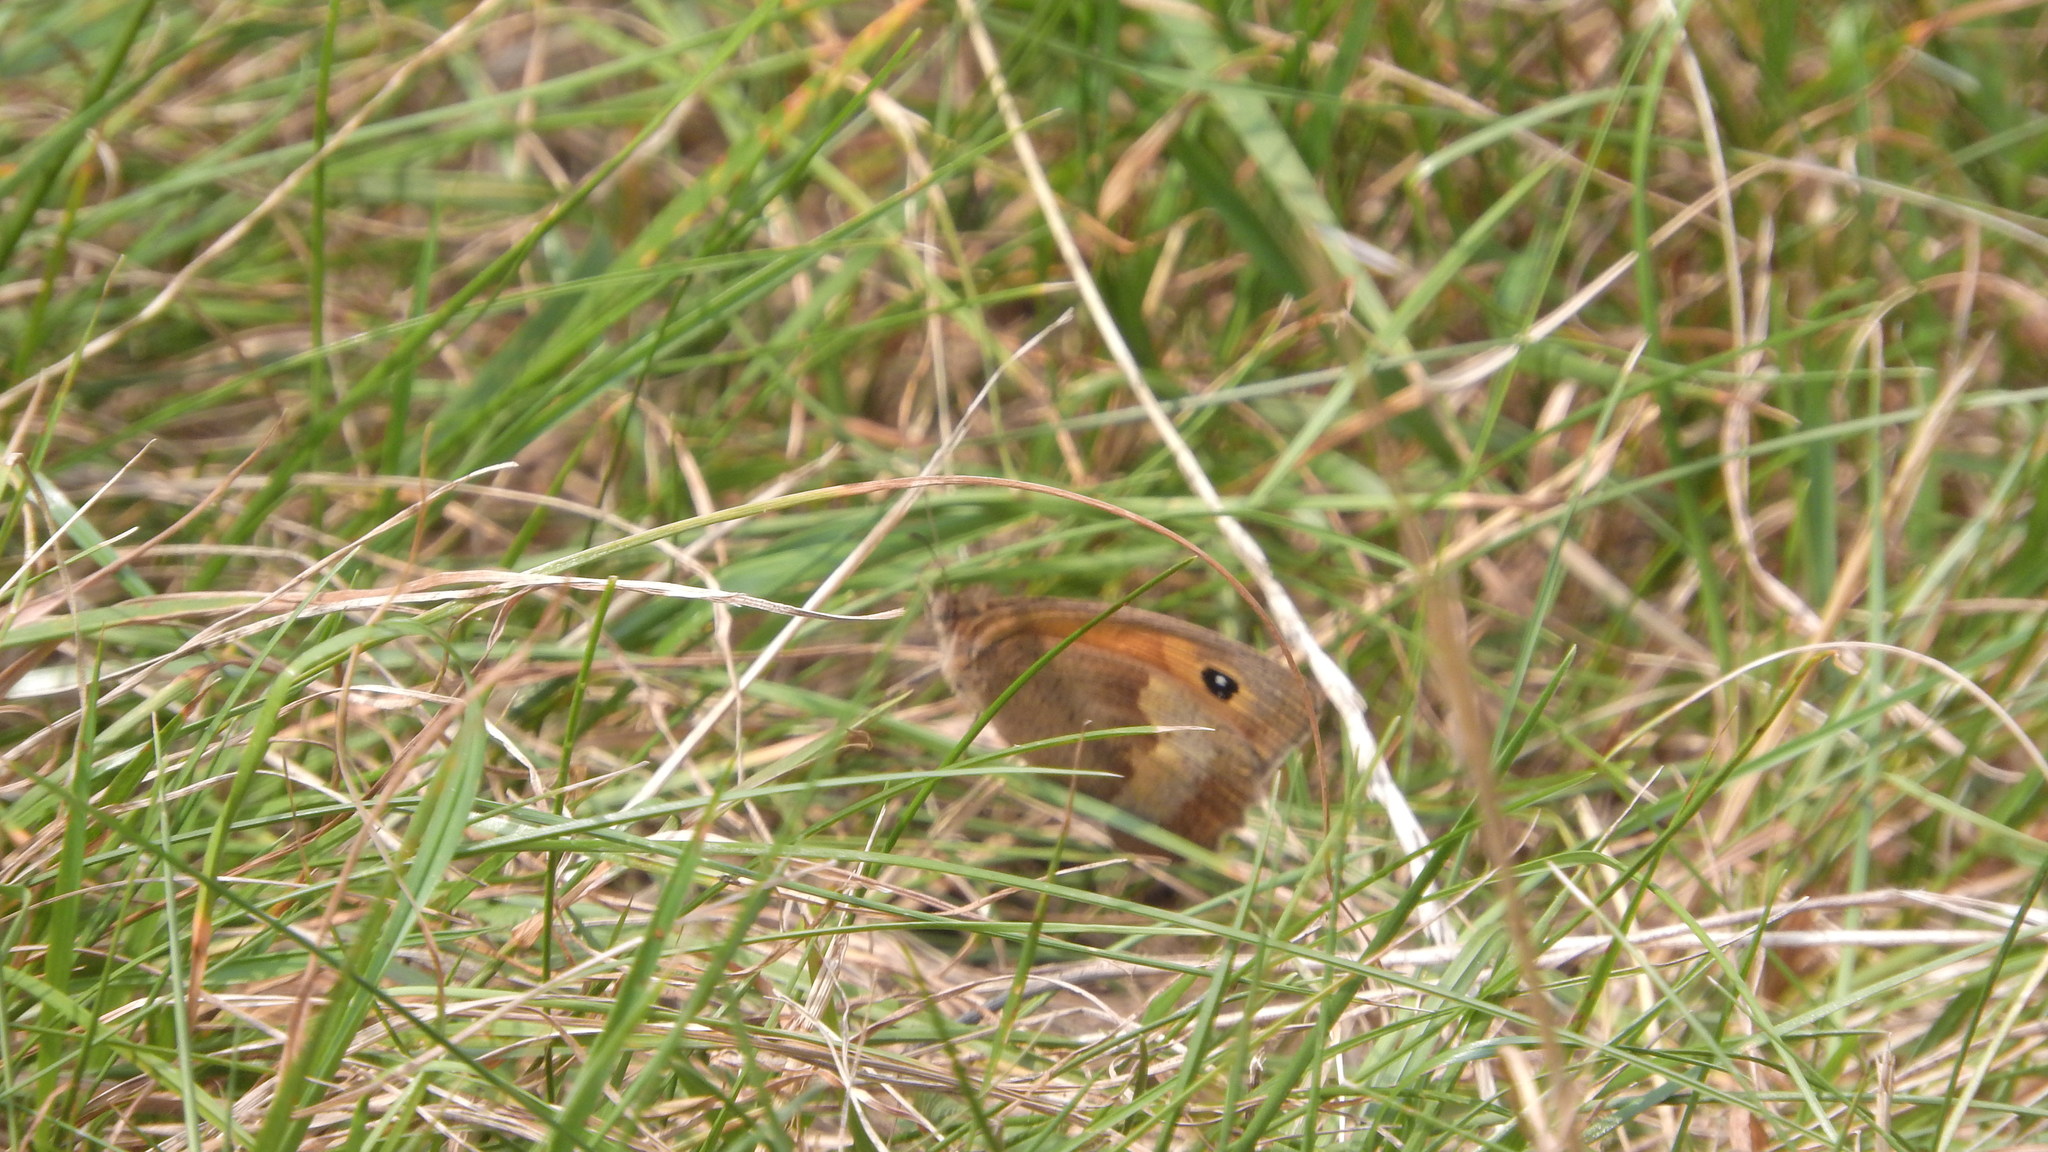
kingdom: Animalia
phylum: Arthropoda
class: Insecta
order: Lepidoptera
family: Nymphalidae
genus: Maniola
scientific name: Maniola jurtina
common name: Meadow brown
